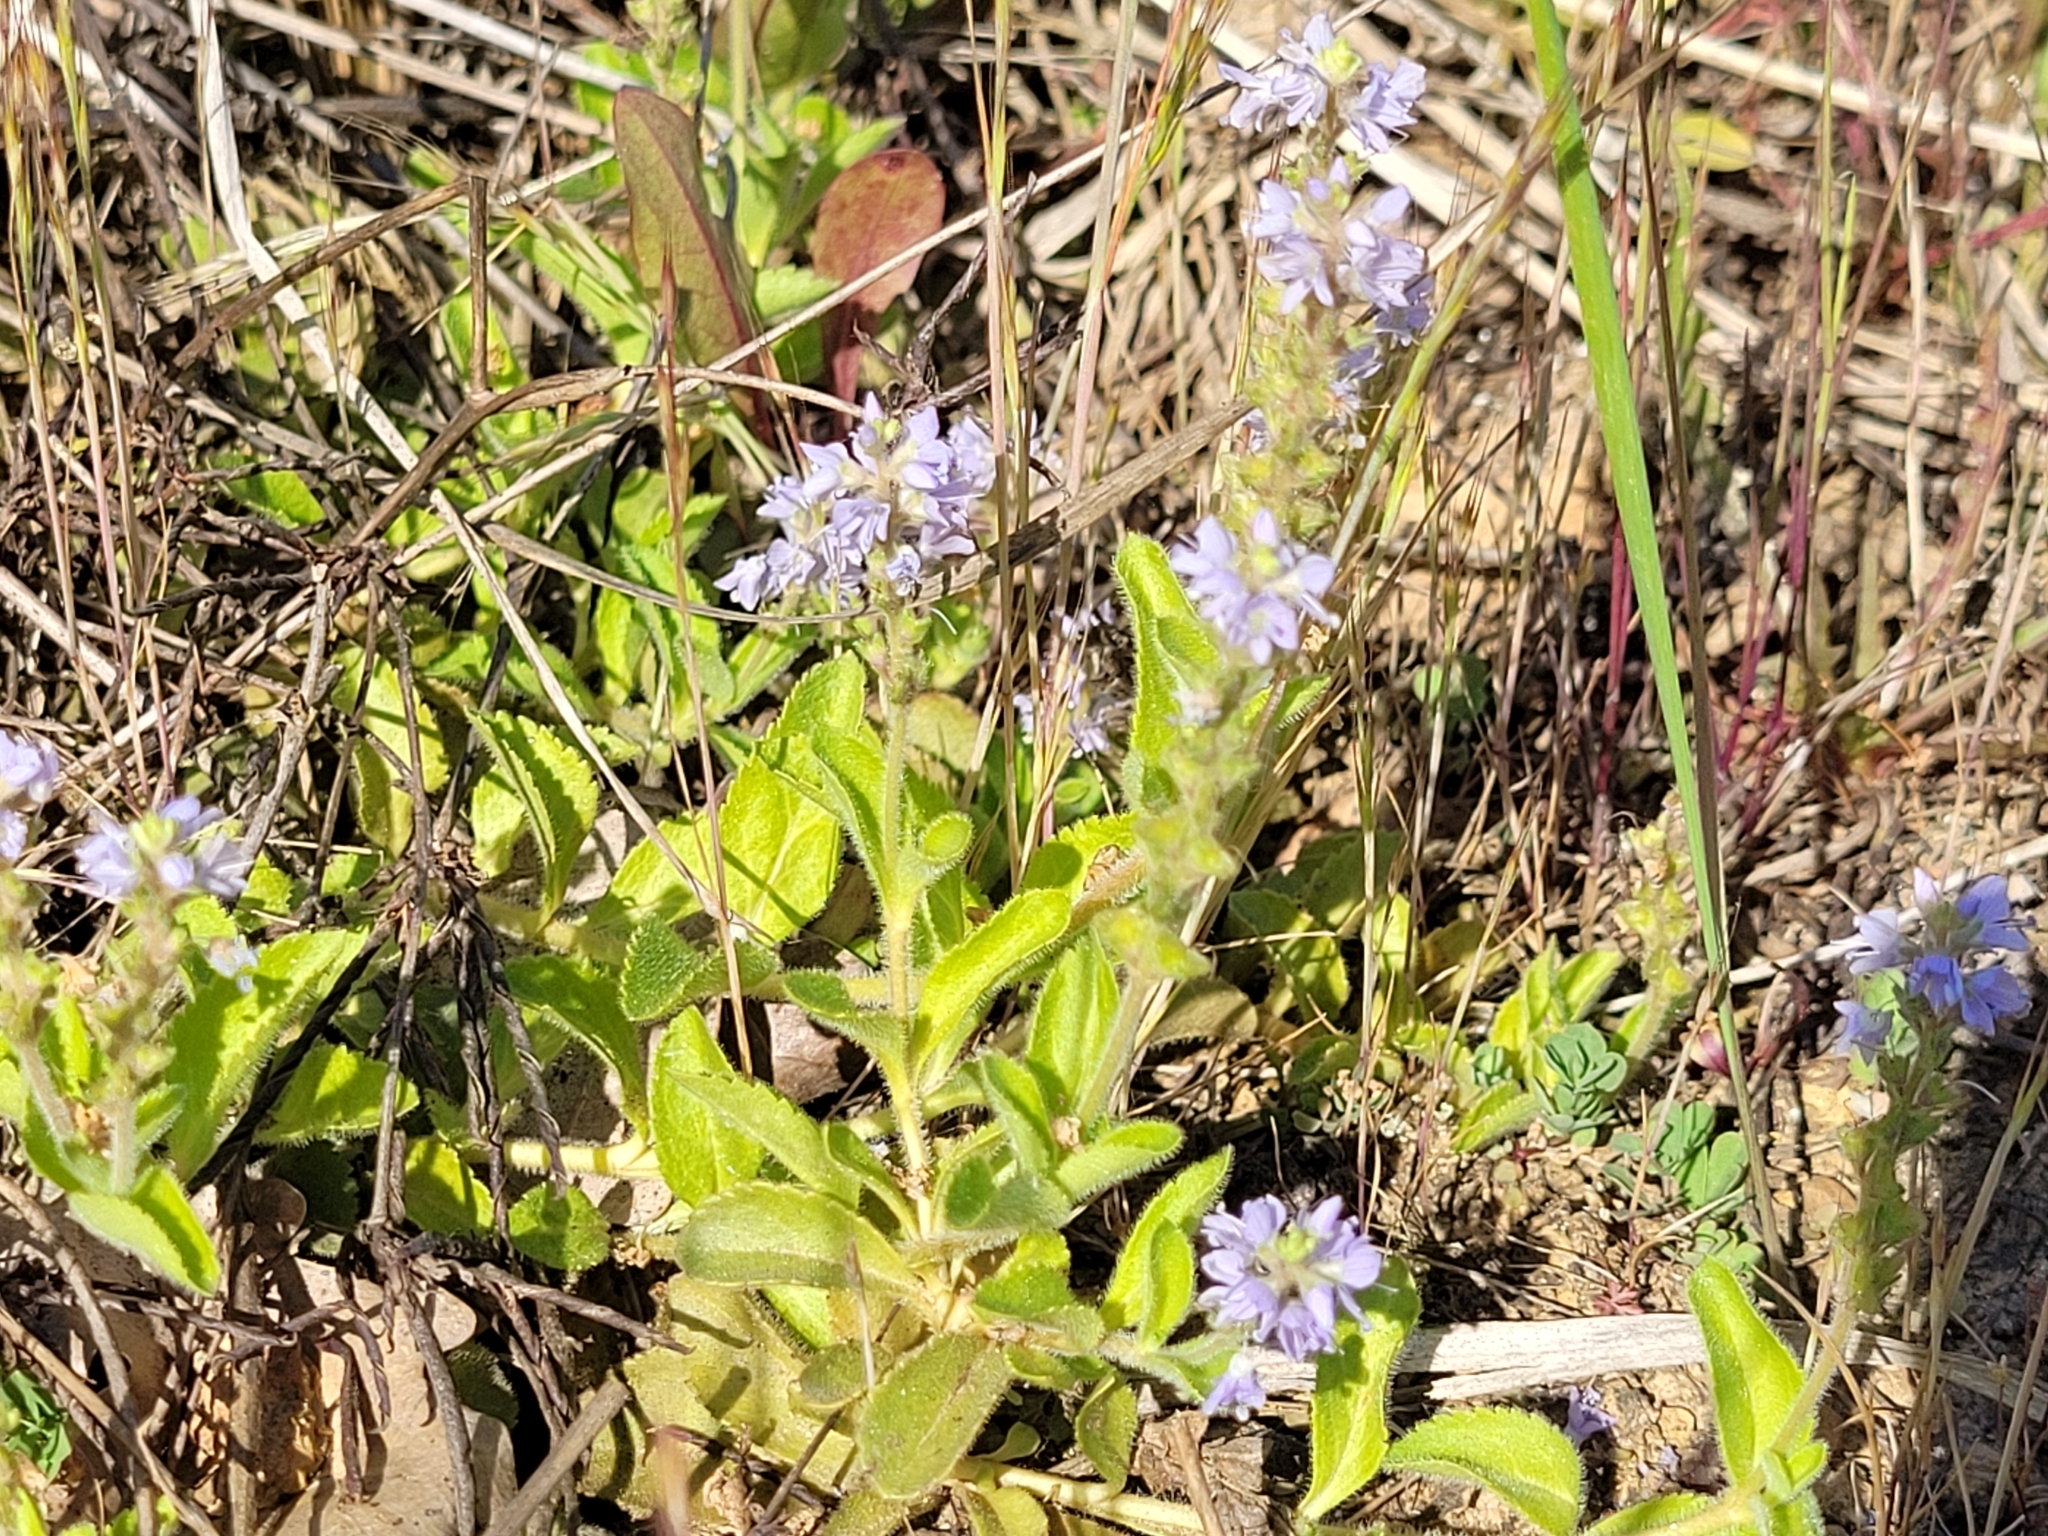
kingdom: Plantae
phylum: Tracheophyta
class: Magnoliopsida
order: Lamiales
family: Plantaginaceae
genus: Veronica
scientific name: Veronica officinalis
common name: Common speedwell
